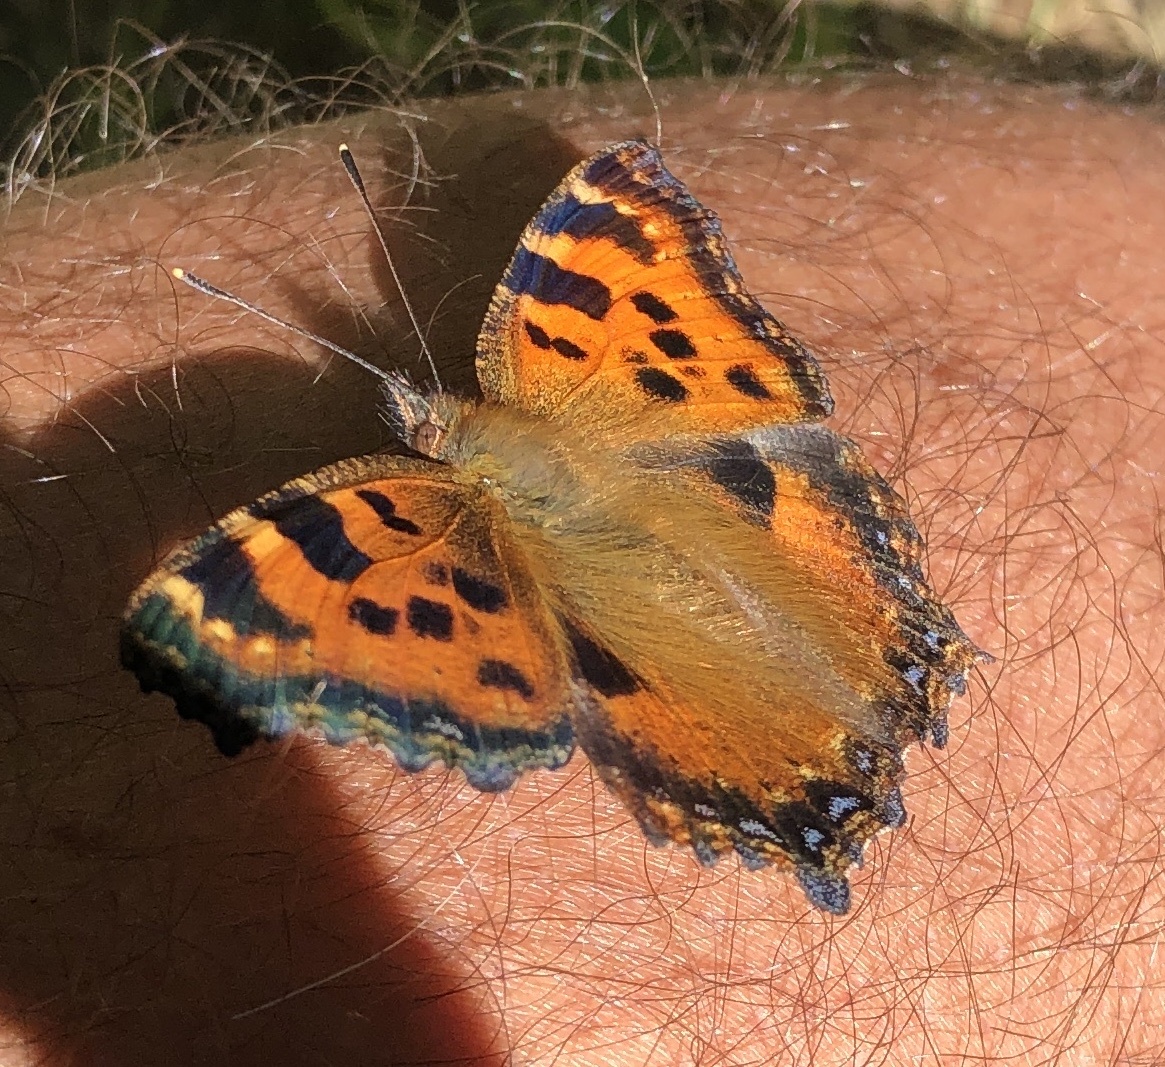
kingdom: Animalia
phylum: Arthropoda
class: Insecta
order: Lepidoptera
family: Nymphalidae
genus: Nymphalis
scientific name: Nymphalis polychloros
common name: Large tortoiseshell
